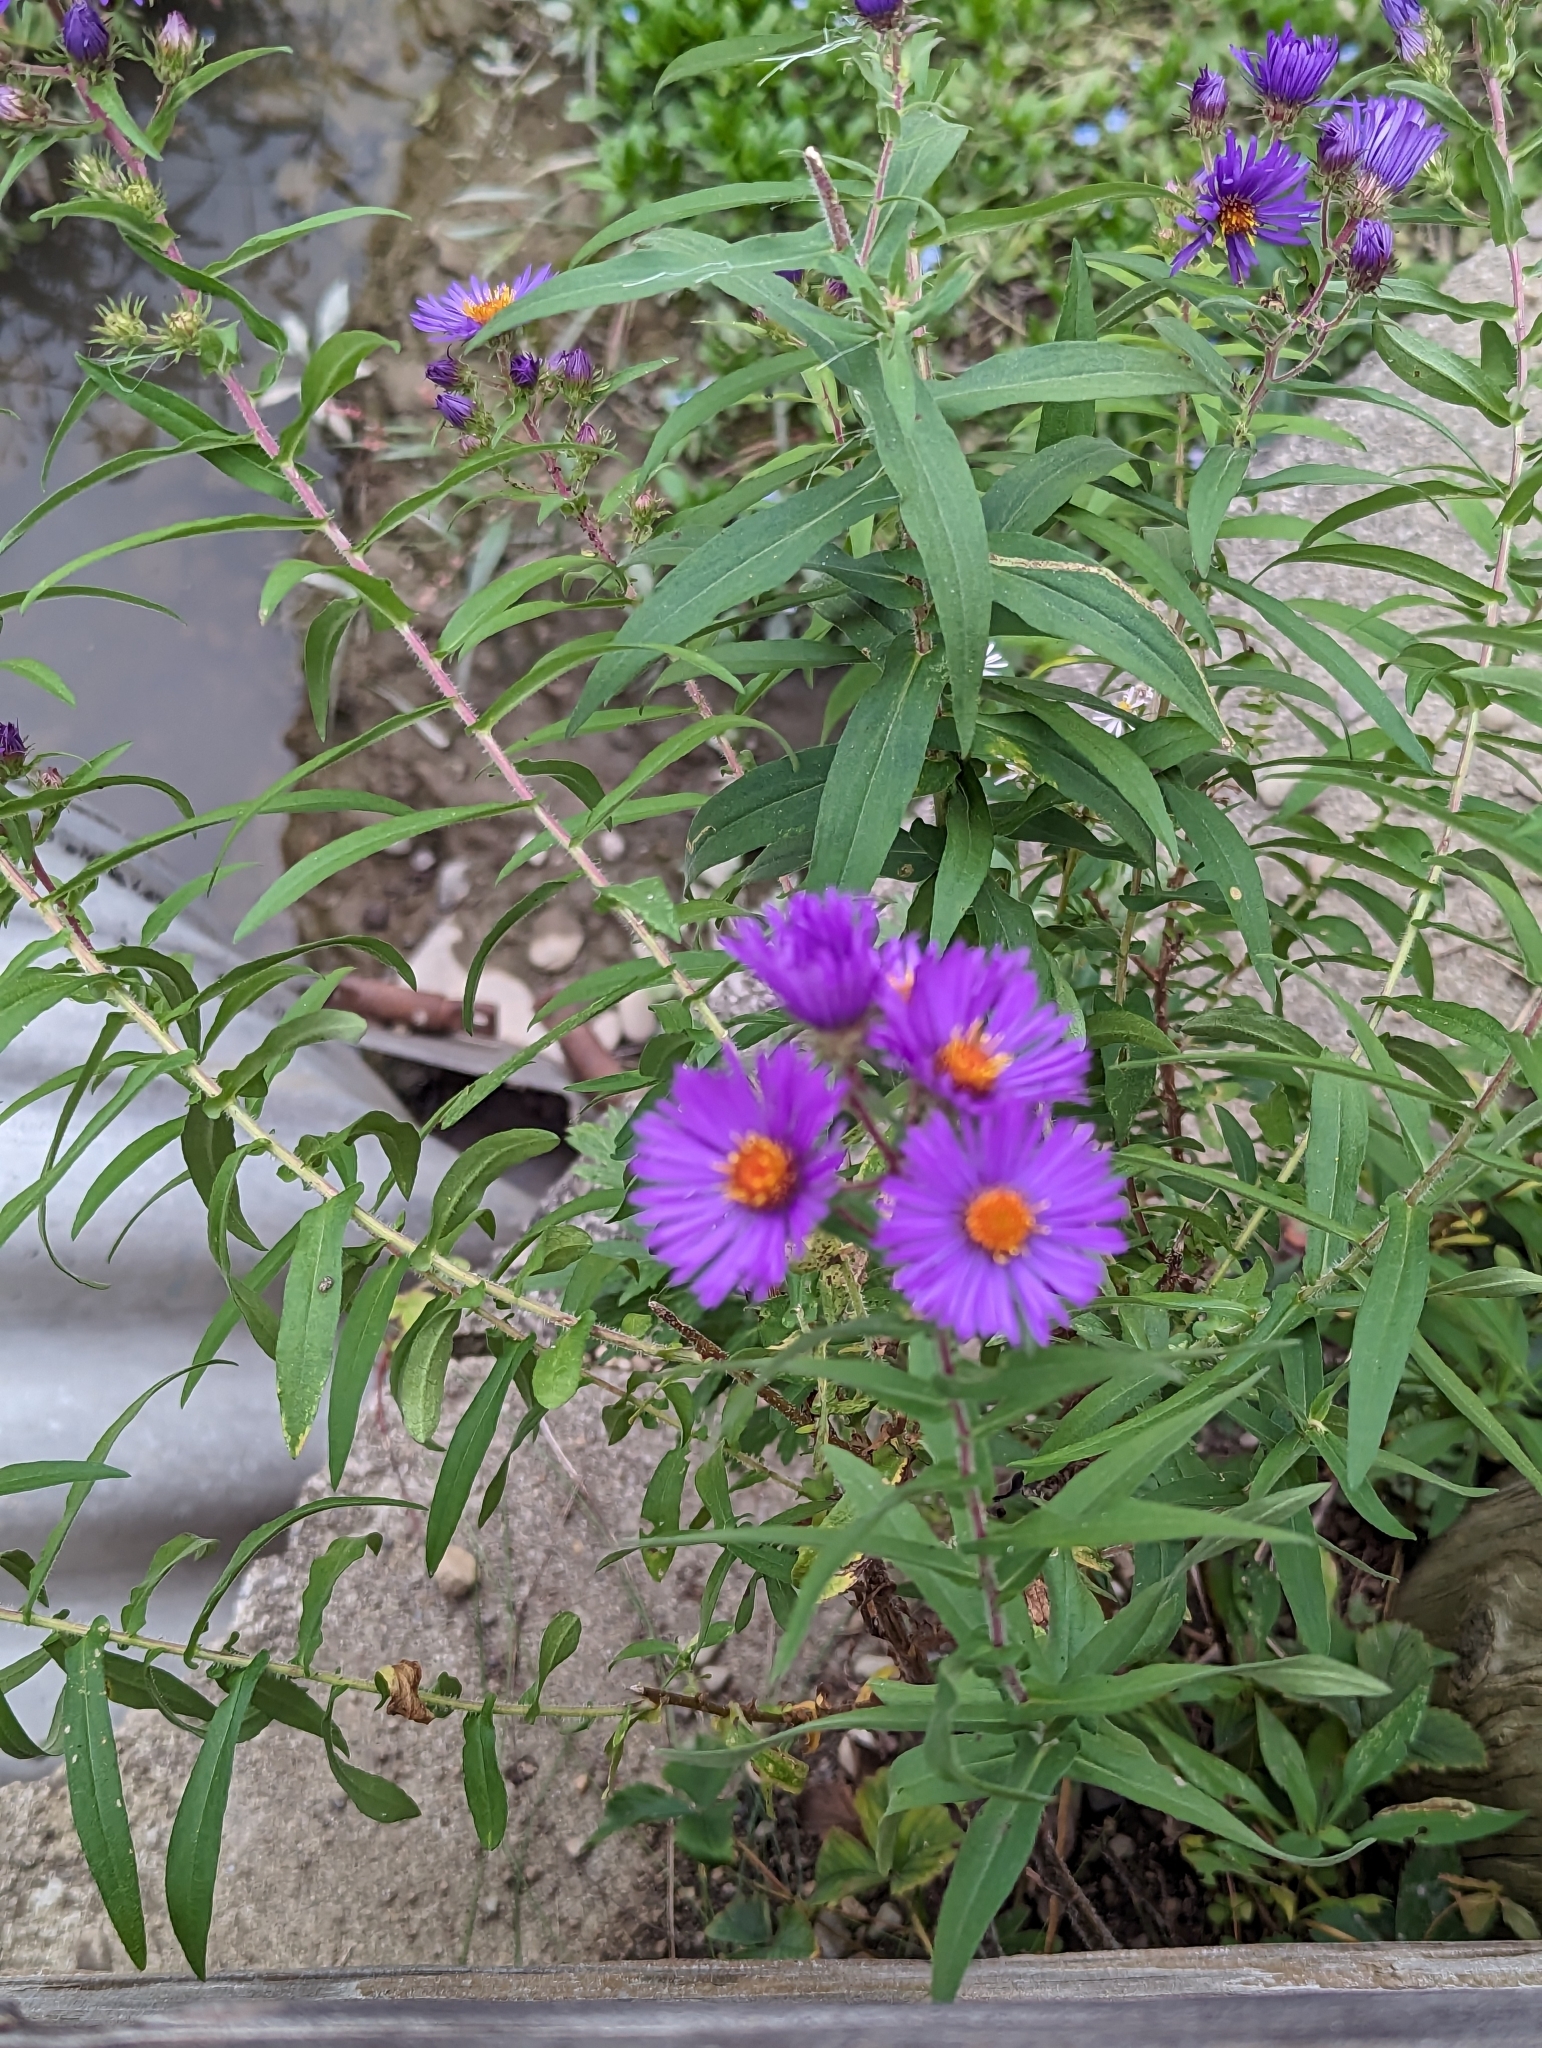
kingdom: Plantae
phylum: Tracheophyta
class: Magnoliopsida
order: Asterales
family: Asteraceae
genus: Symphyotrichum
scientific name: Symphyotrichum novae-angliae
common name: Michaelmas daisy
